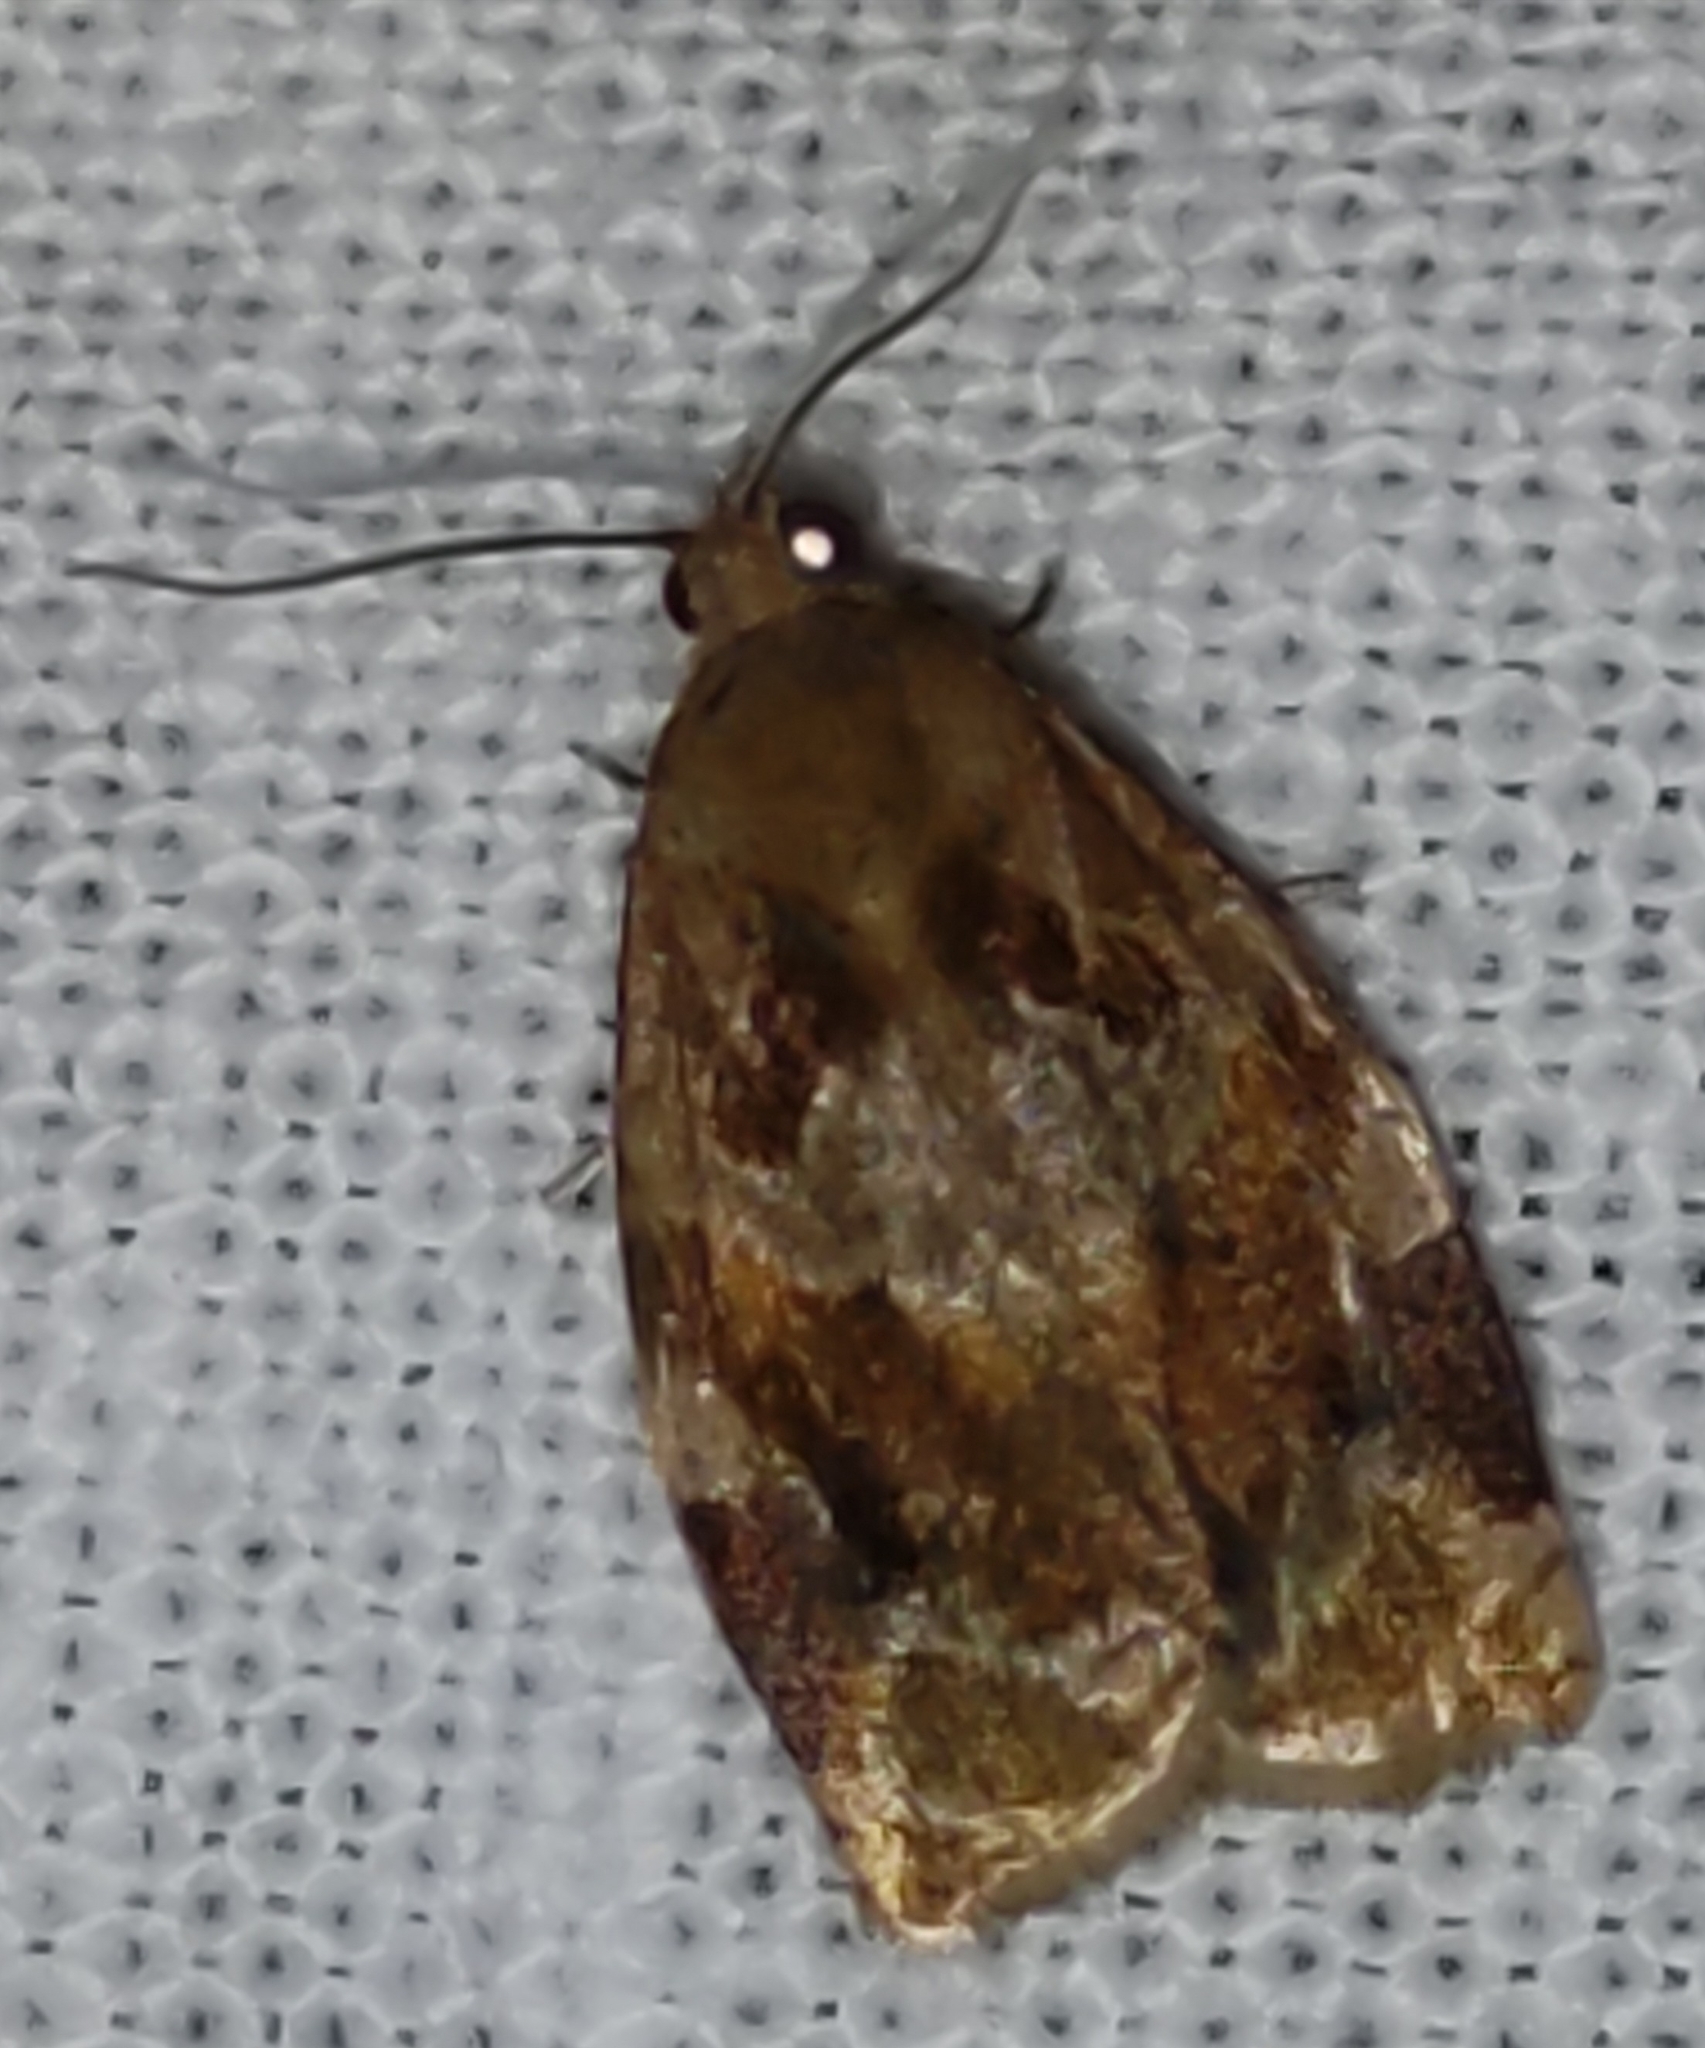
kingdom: Animalia
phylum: Arthropoda
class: Insecta
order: Lepidoptera
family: Tortricidae
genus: Archips
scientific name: Archips xylosteana
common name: Variegated golden tortrix
